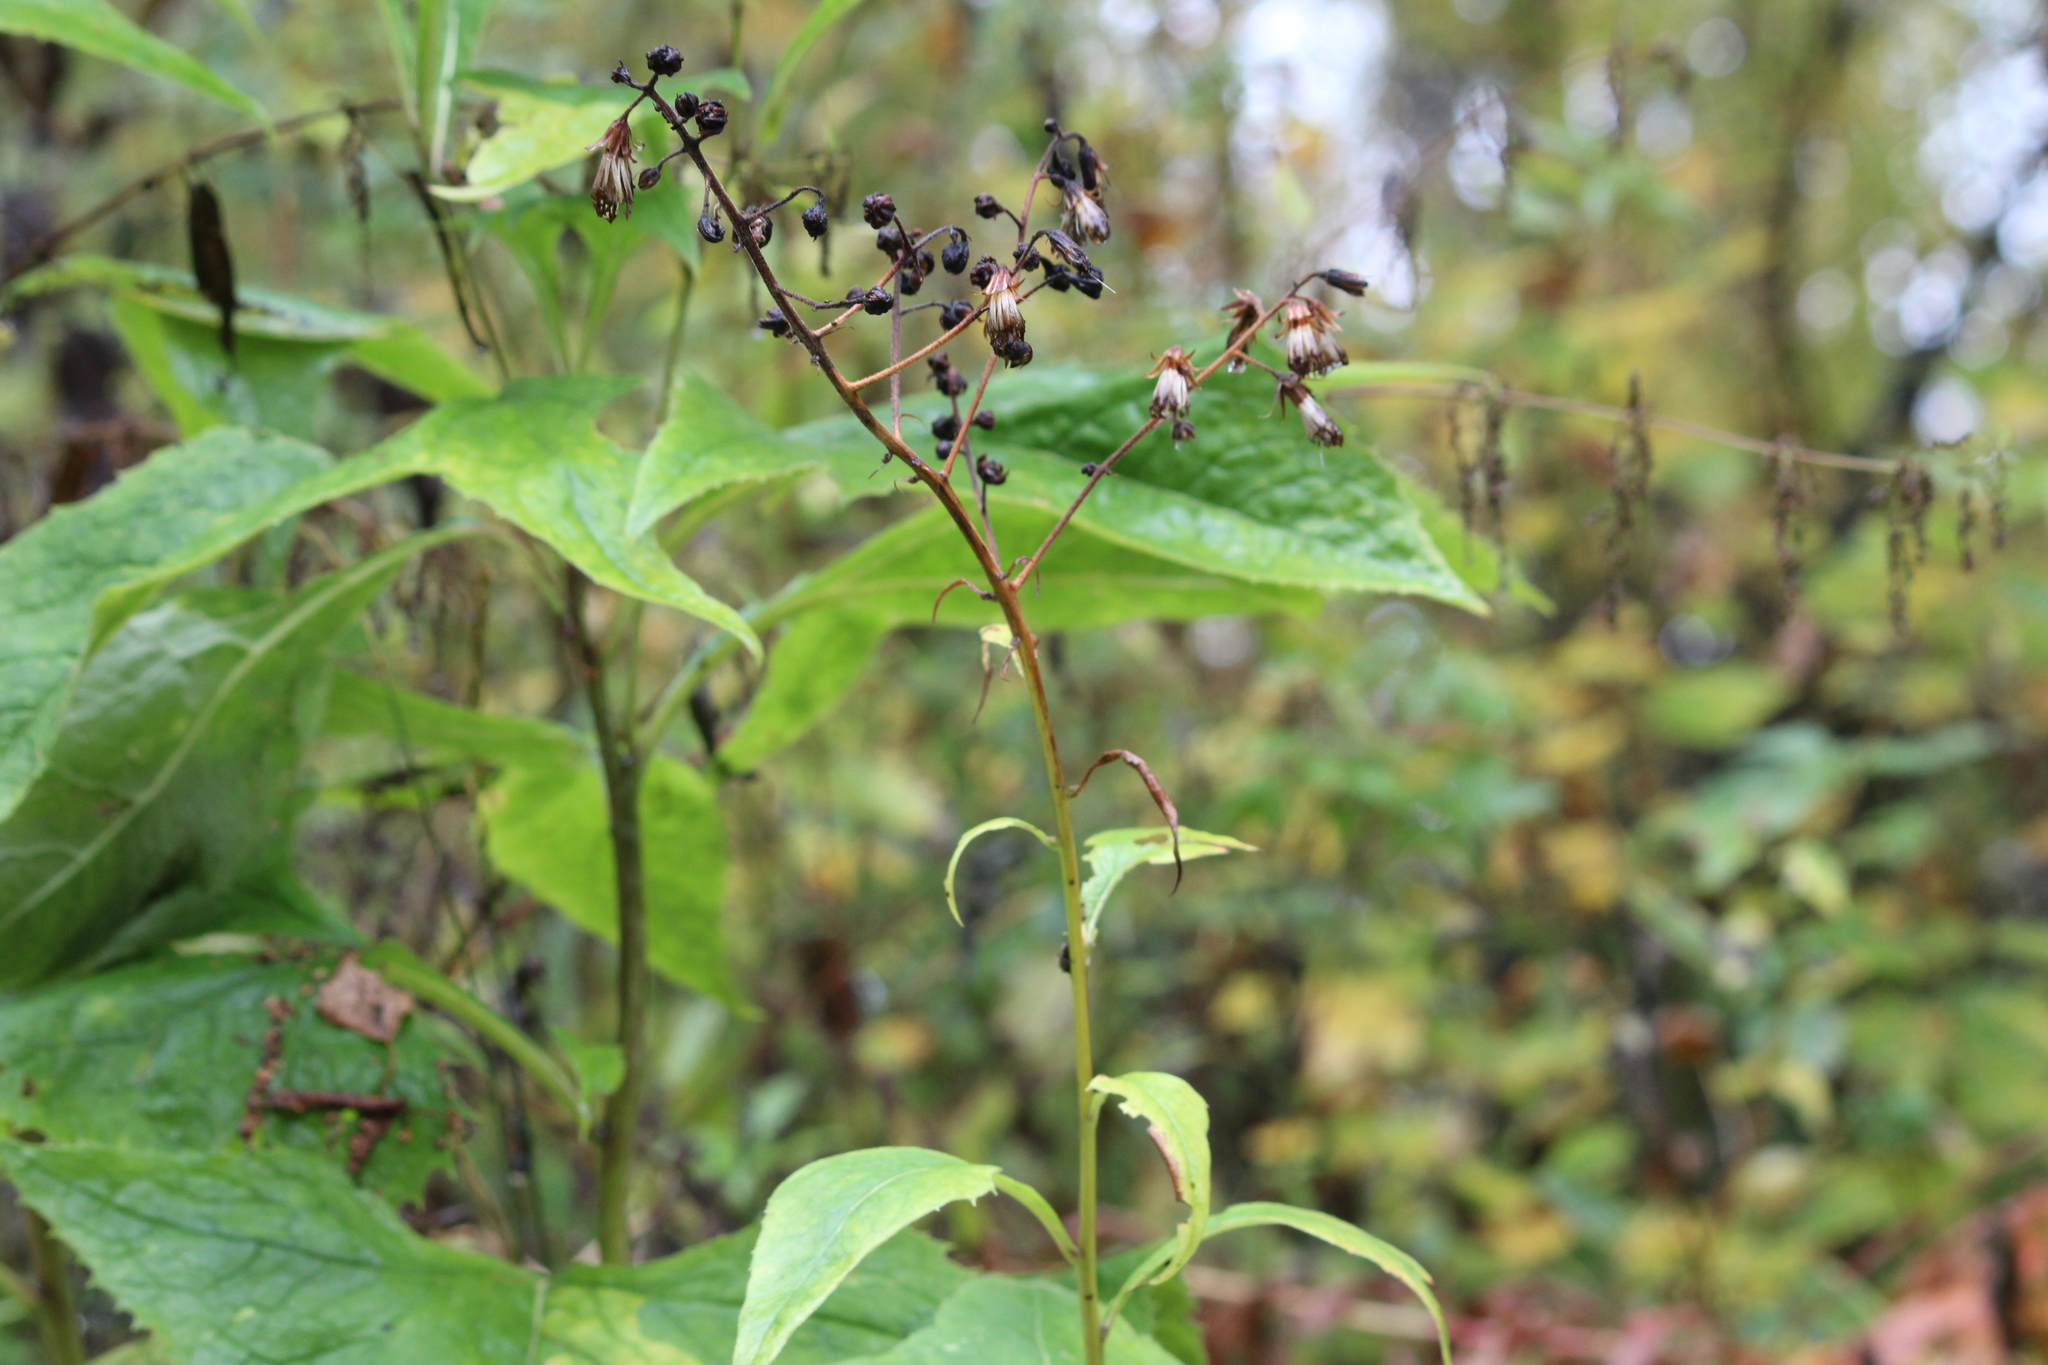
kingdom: Plantae
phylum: Tracheophyta
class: Magnoliopsida
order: Asterales
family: Asteraceae
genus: Parasenecio
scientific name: Parasenecio hastatus
